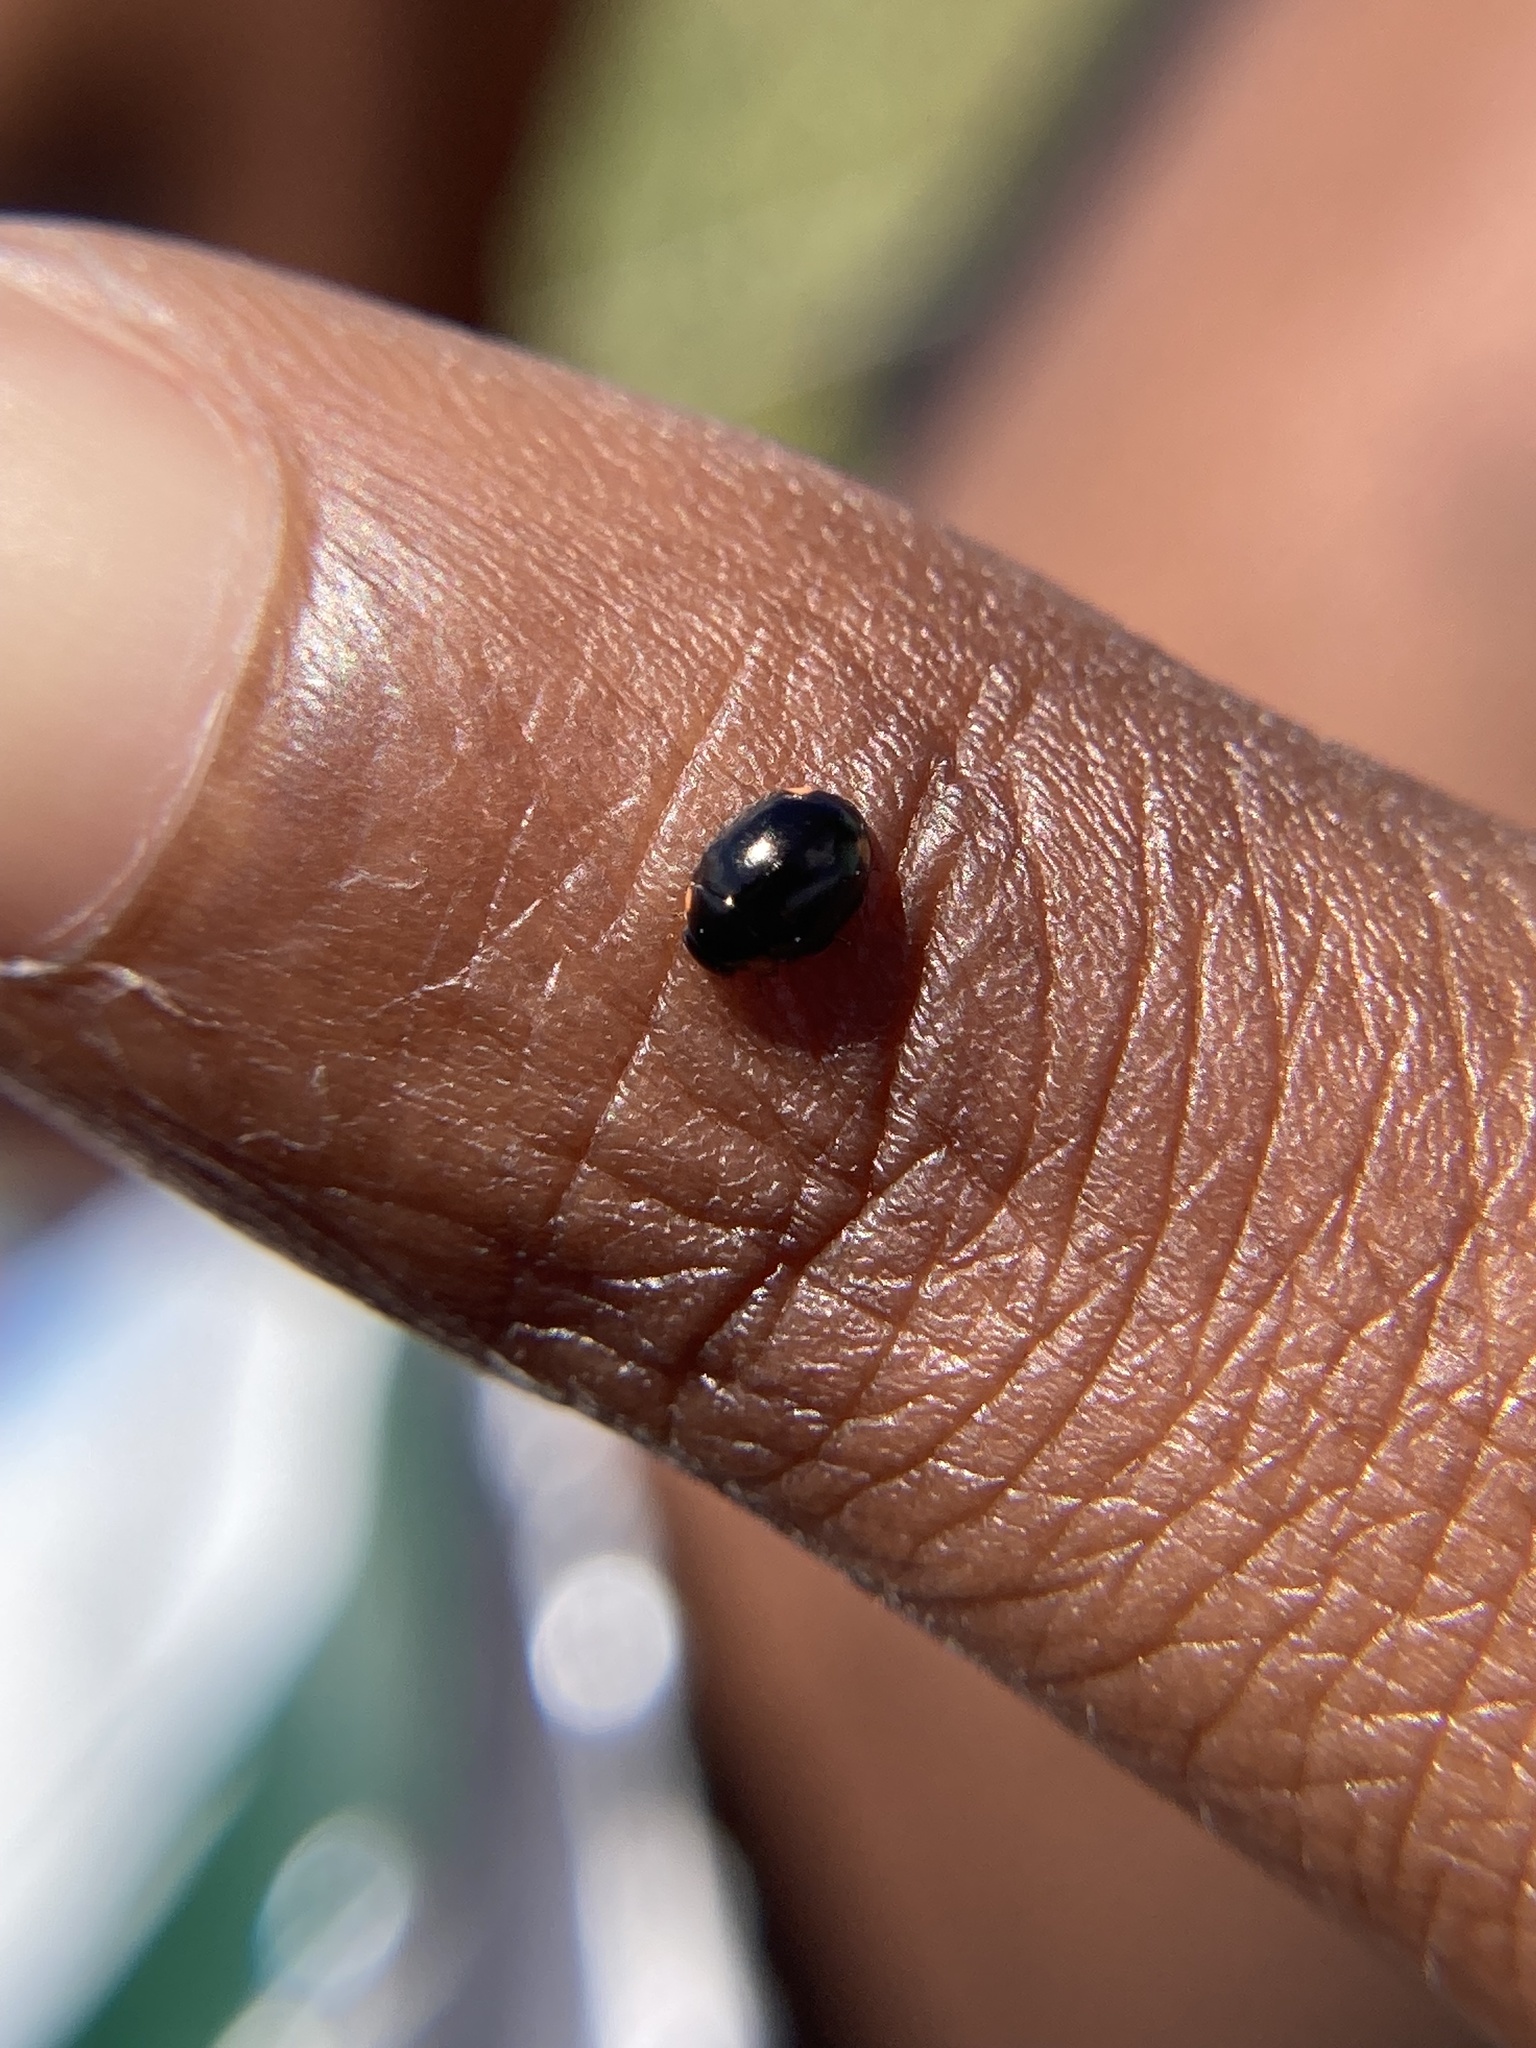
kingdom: Animalia
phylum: Arthropoda
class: Insecta
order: Coleoptera
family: Coccinellidae
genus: Hyperaspis
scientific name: Hyperaspis bigeminata
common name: Bigeminate sigil lady beetle
